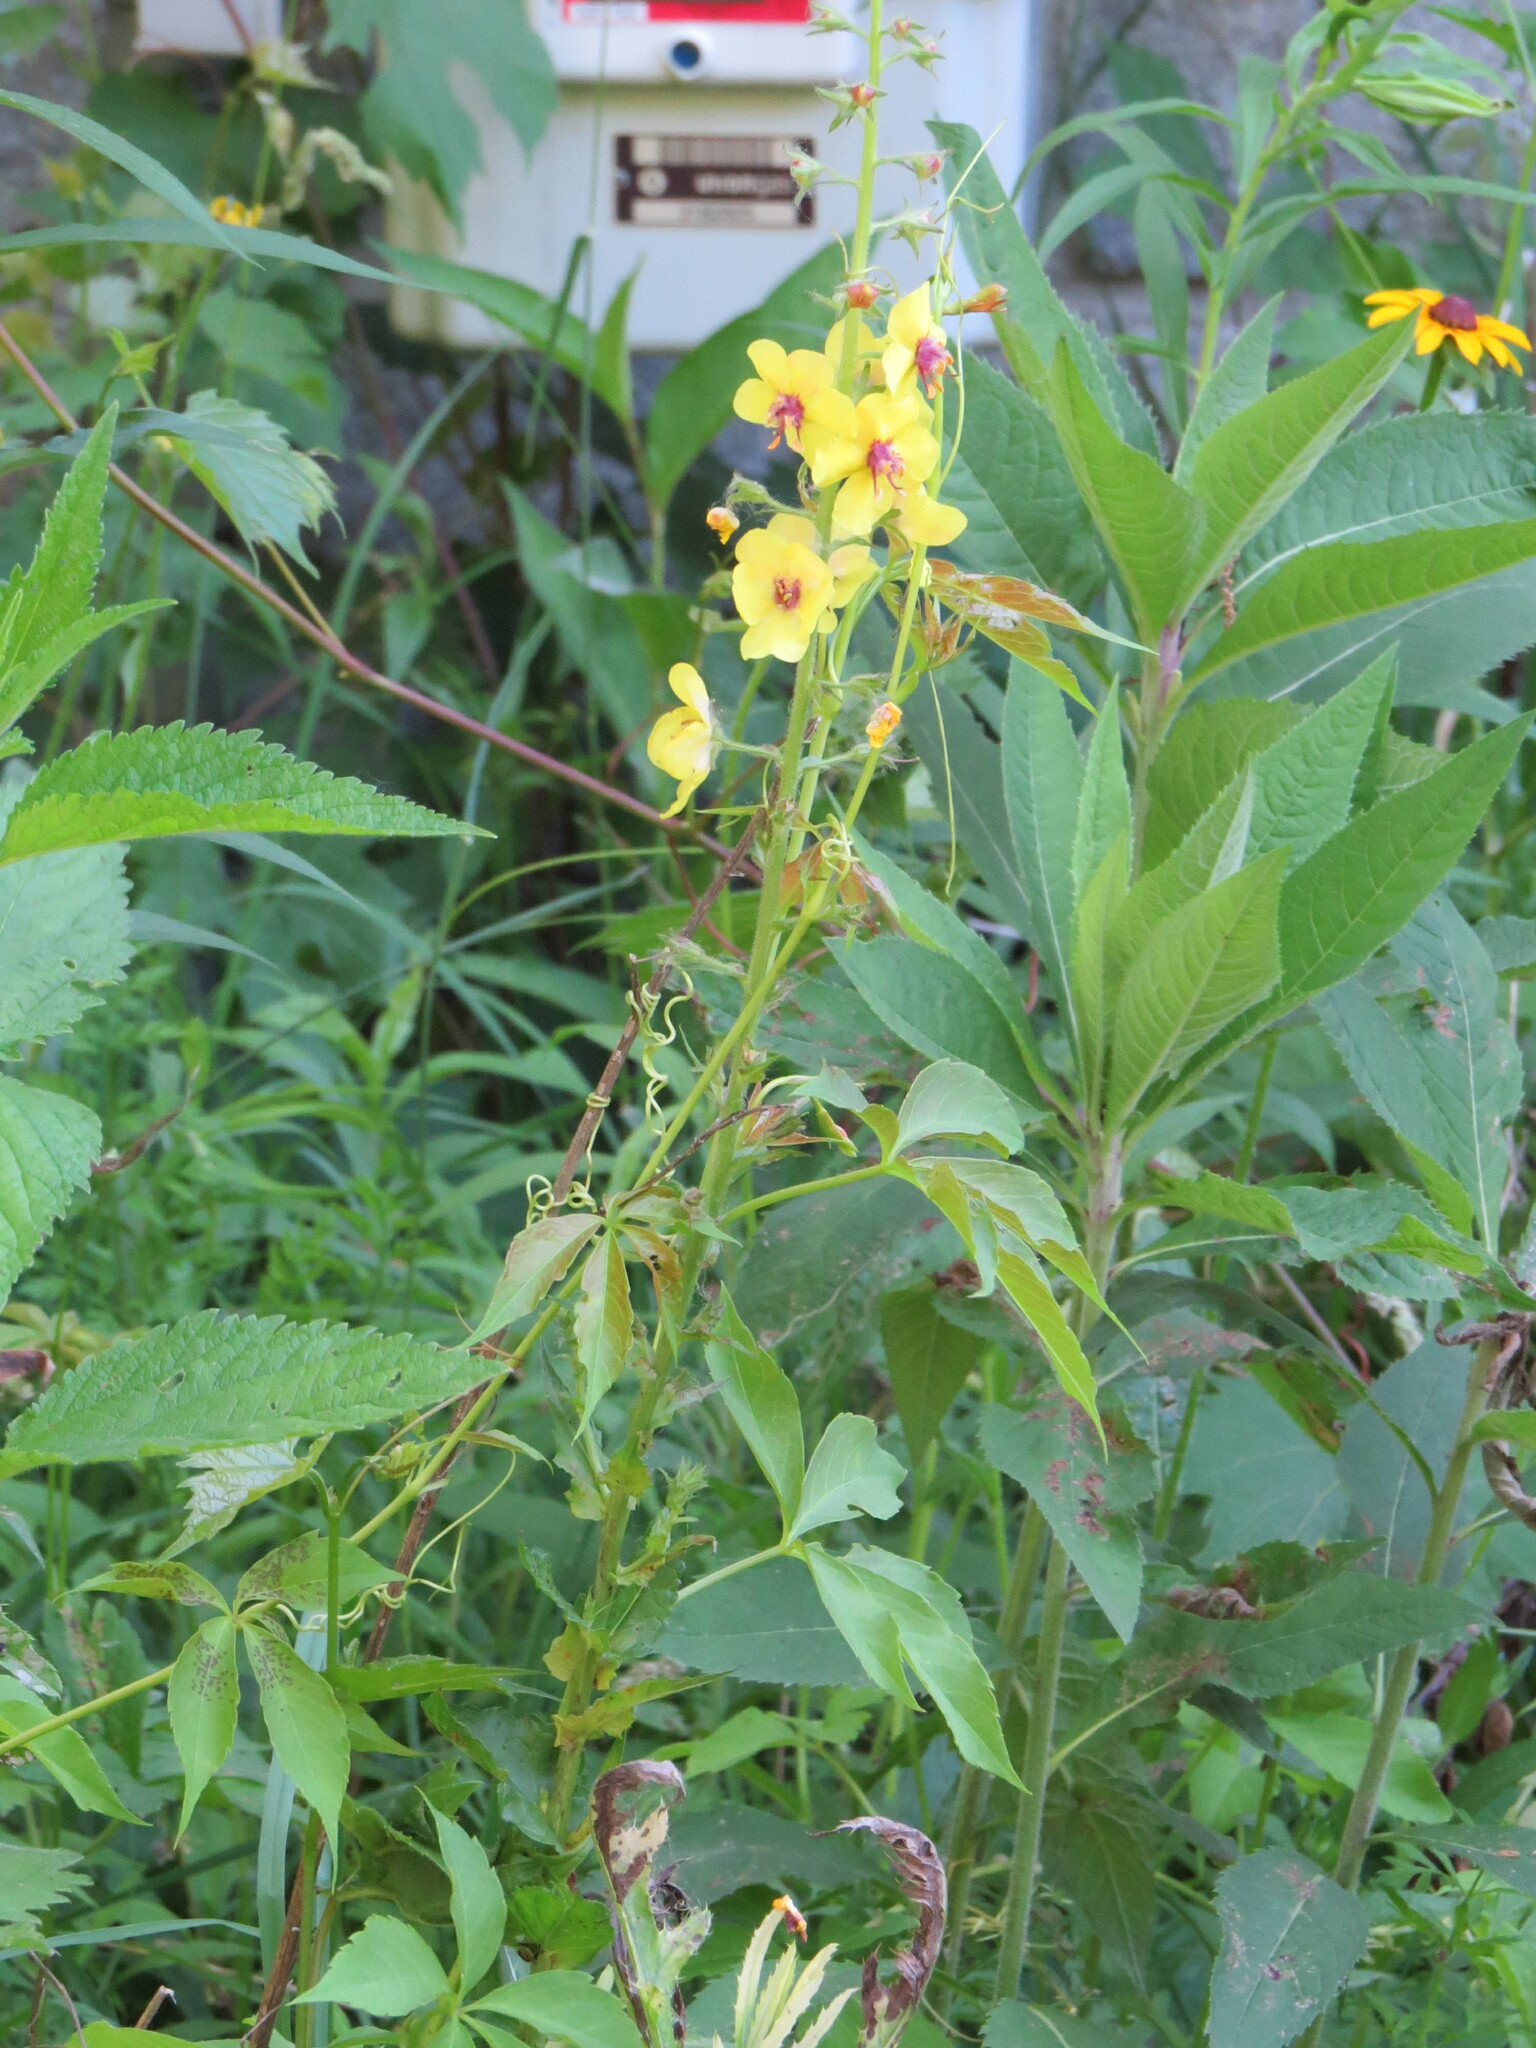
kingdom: Plantae
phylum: Tracheophyta
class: Magnoliopsida
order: Lamiales
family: Scrophulariaceae
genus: Verbascum
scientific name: Verbascum blattaria
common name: Moth mullein
